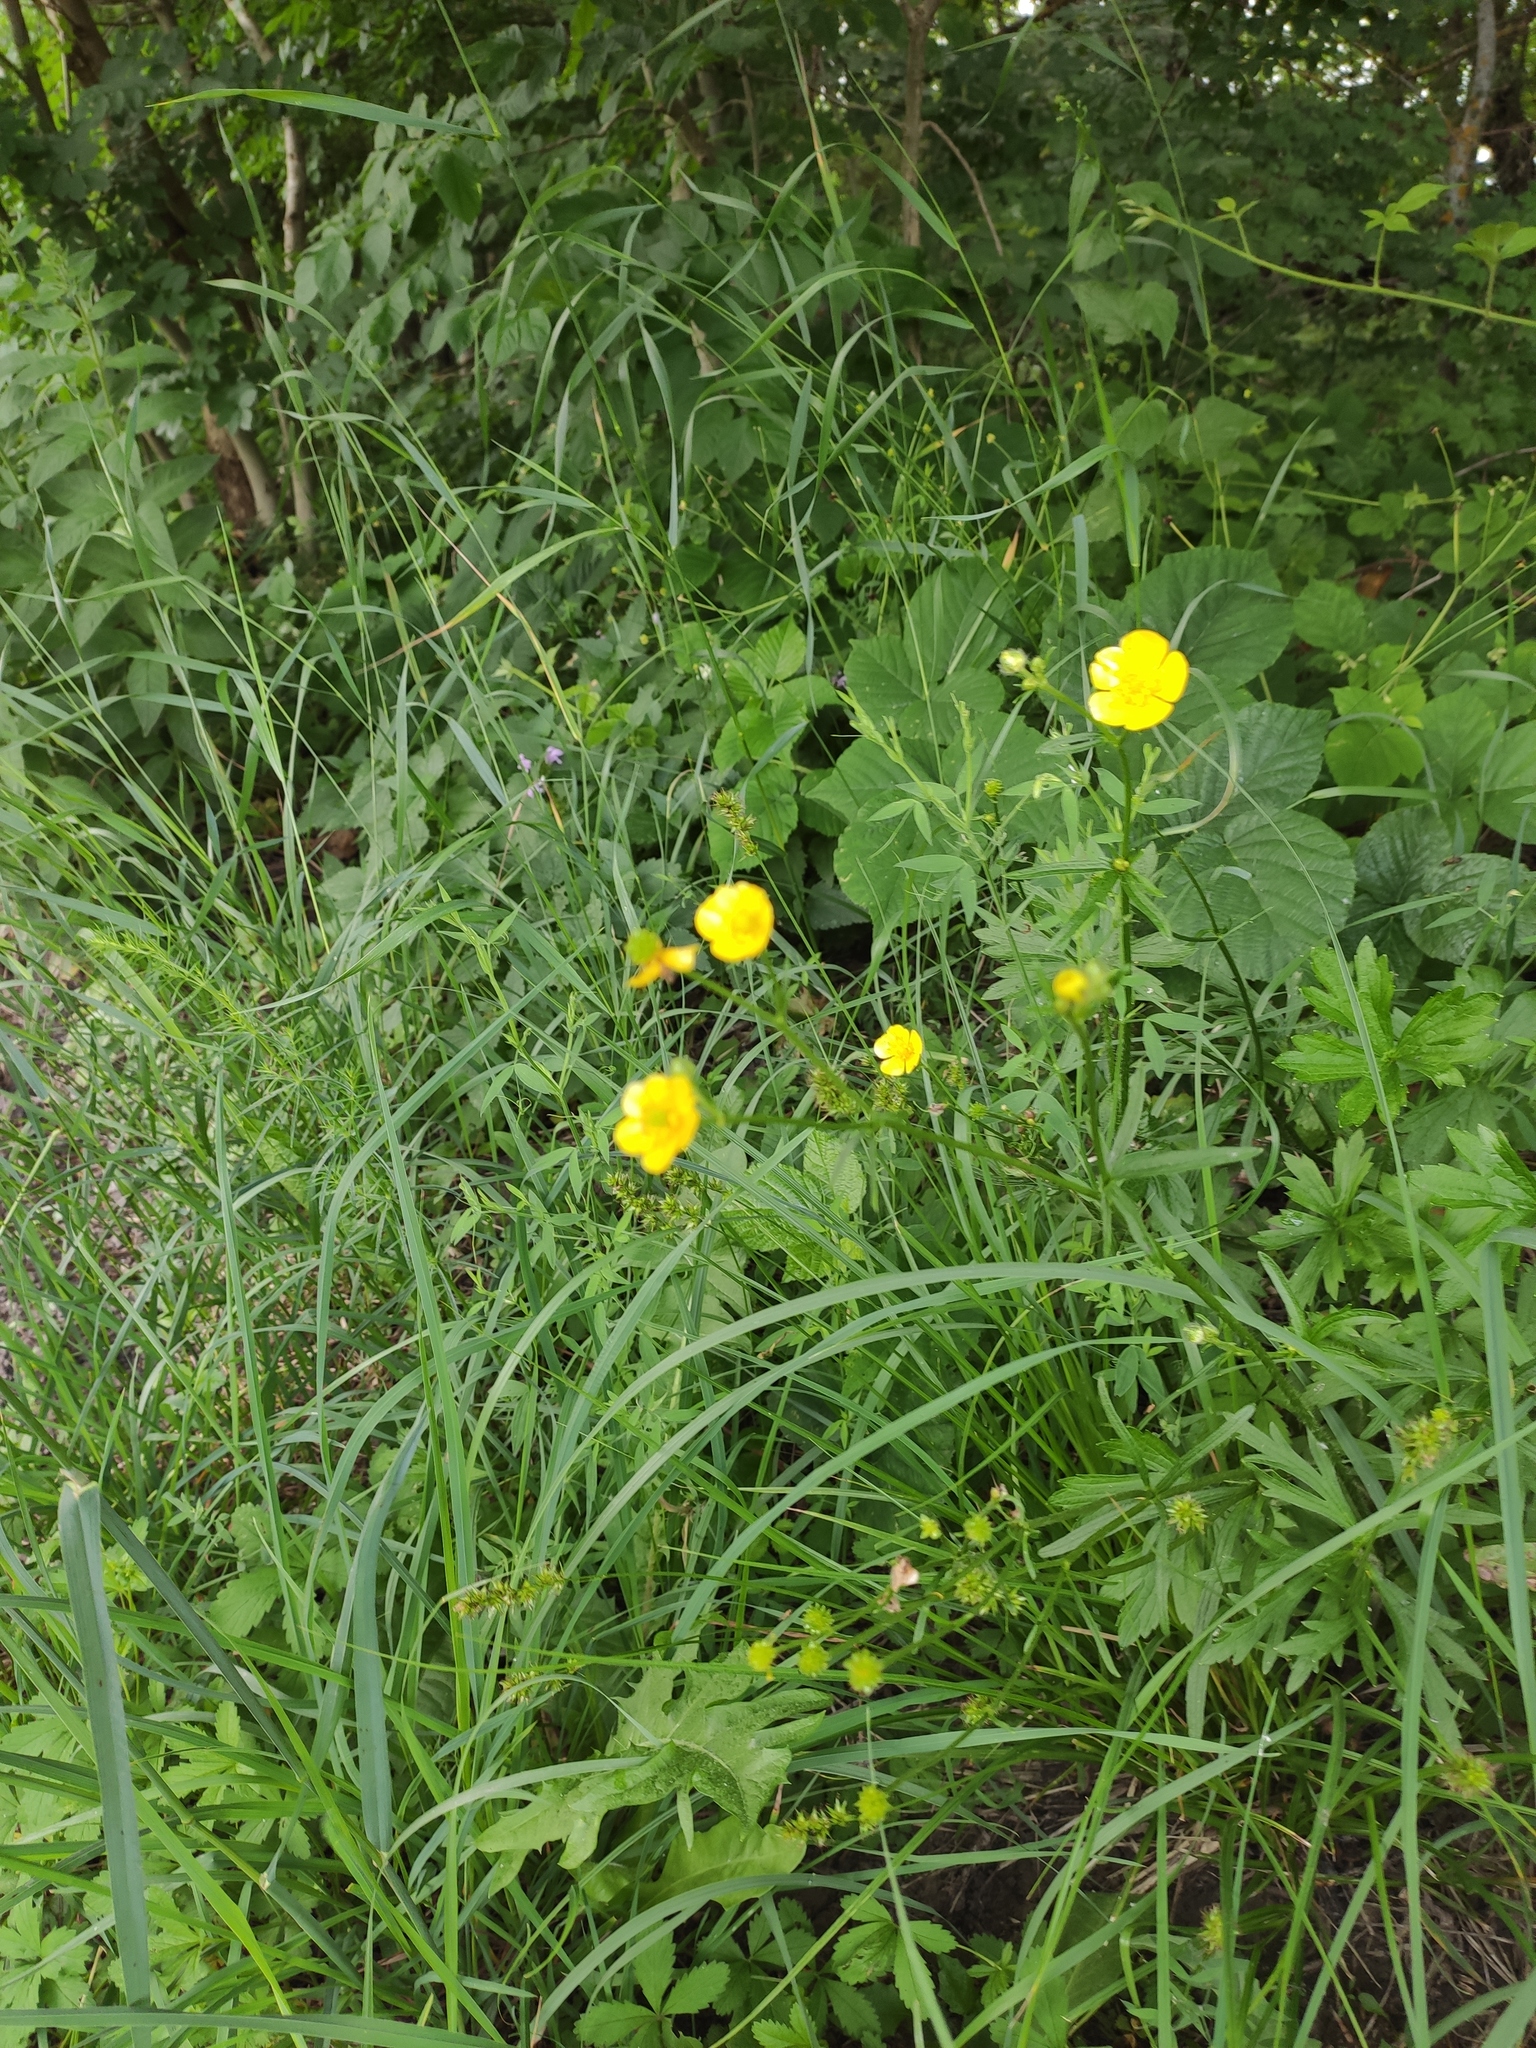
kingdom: Plantae
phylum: Tracheophyta
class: Magnoliopsida
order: Ranunculales
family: Ranunculaceae
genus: Ranunculus
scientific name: Ranunculus polyanthemos
